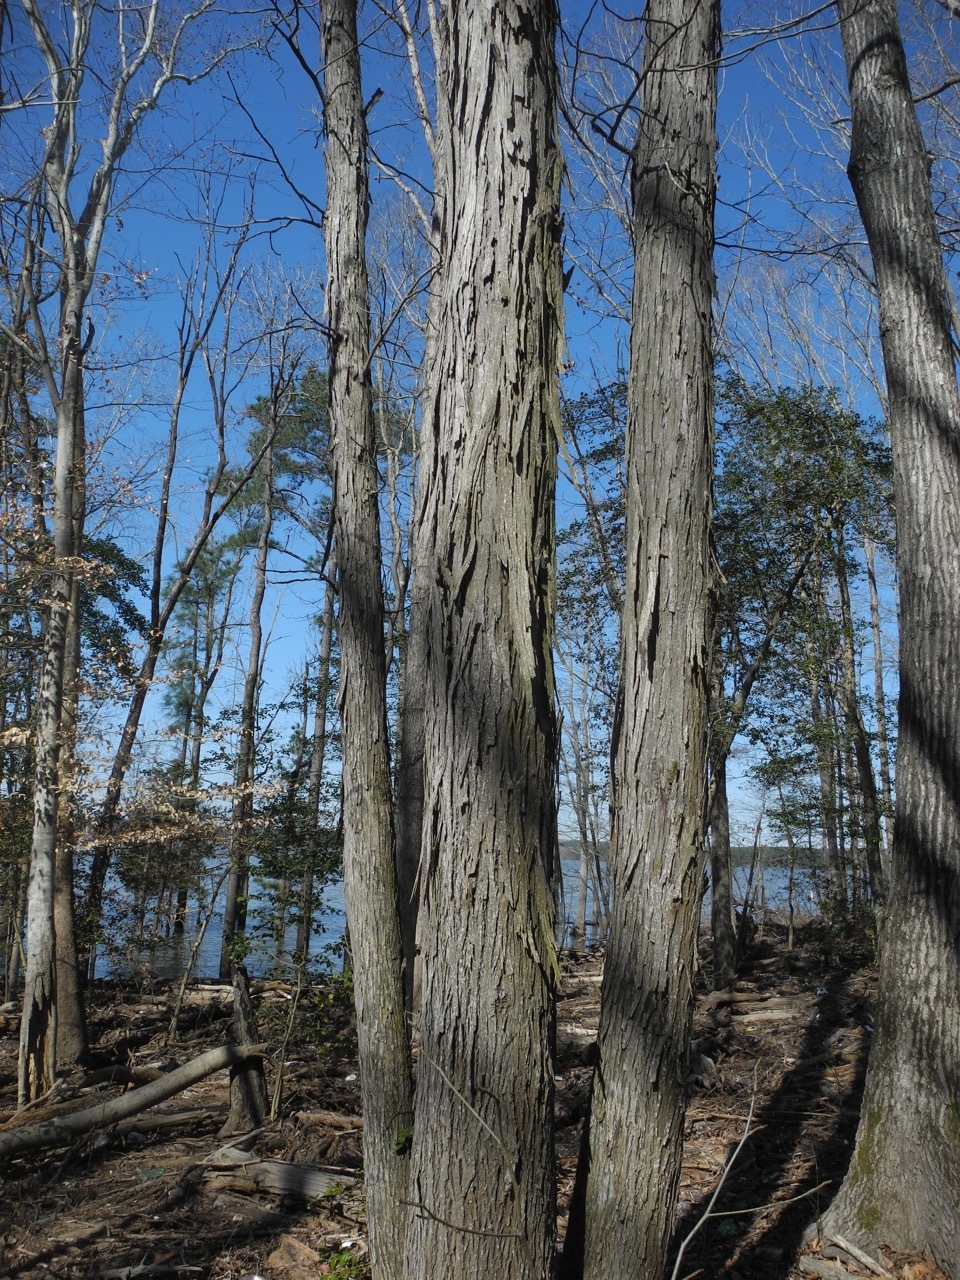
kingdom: Plantae
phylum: Tracheophyta
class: Magnoliopsida
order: Fagales
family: Juglandaceae
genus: Carya
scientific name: Carya ovata
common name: Shagbark hickory
